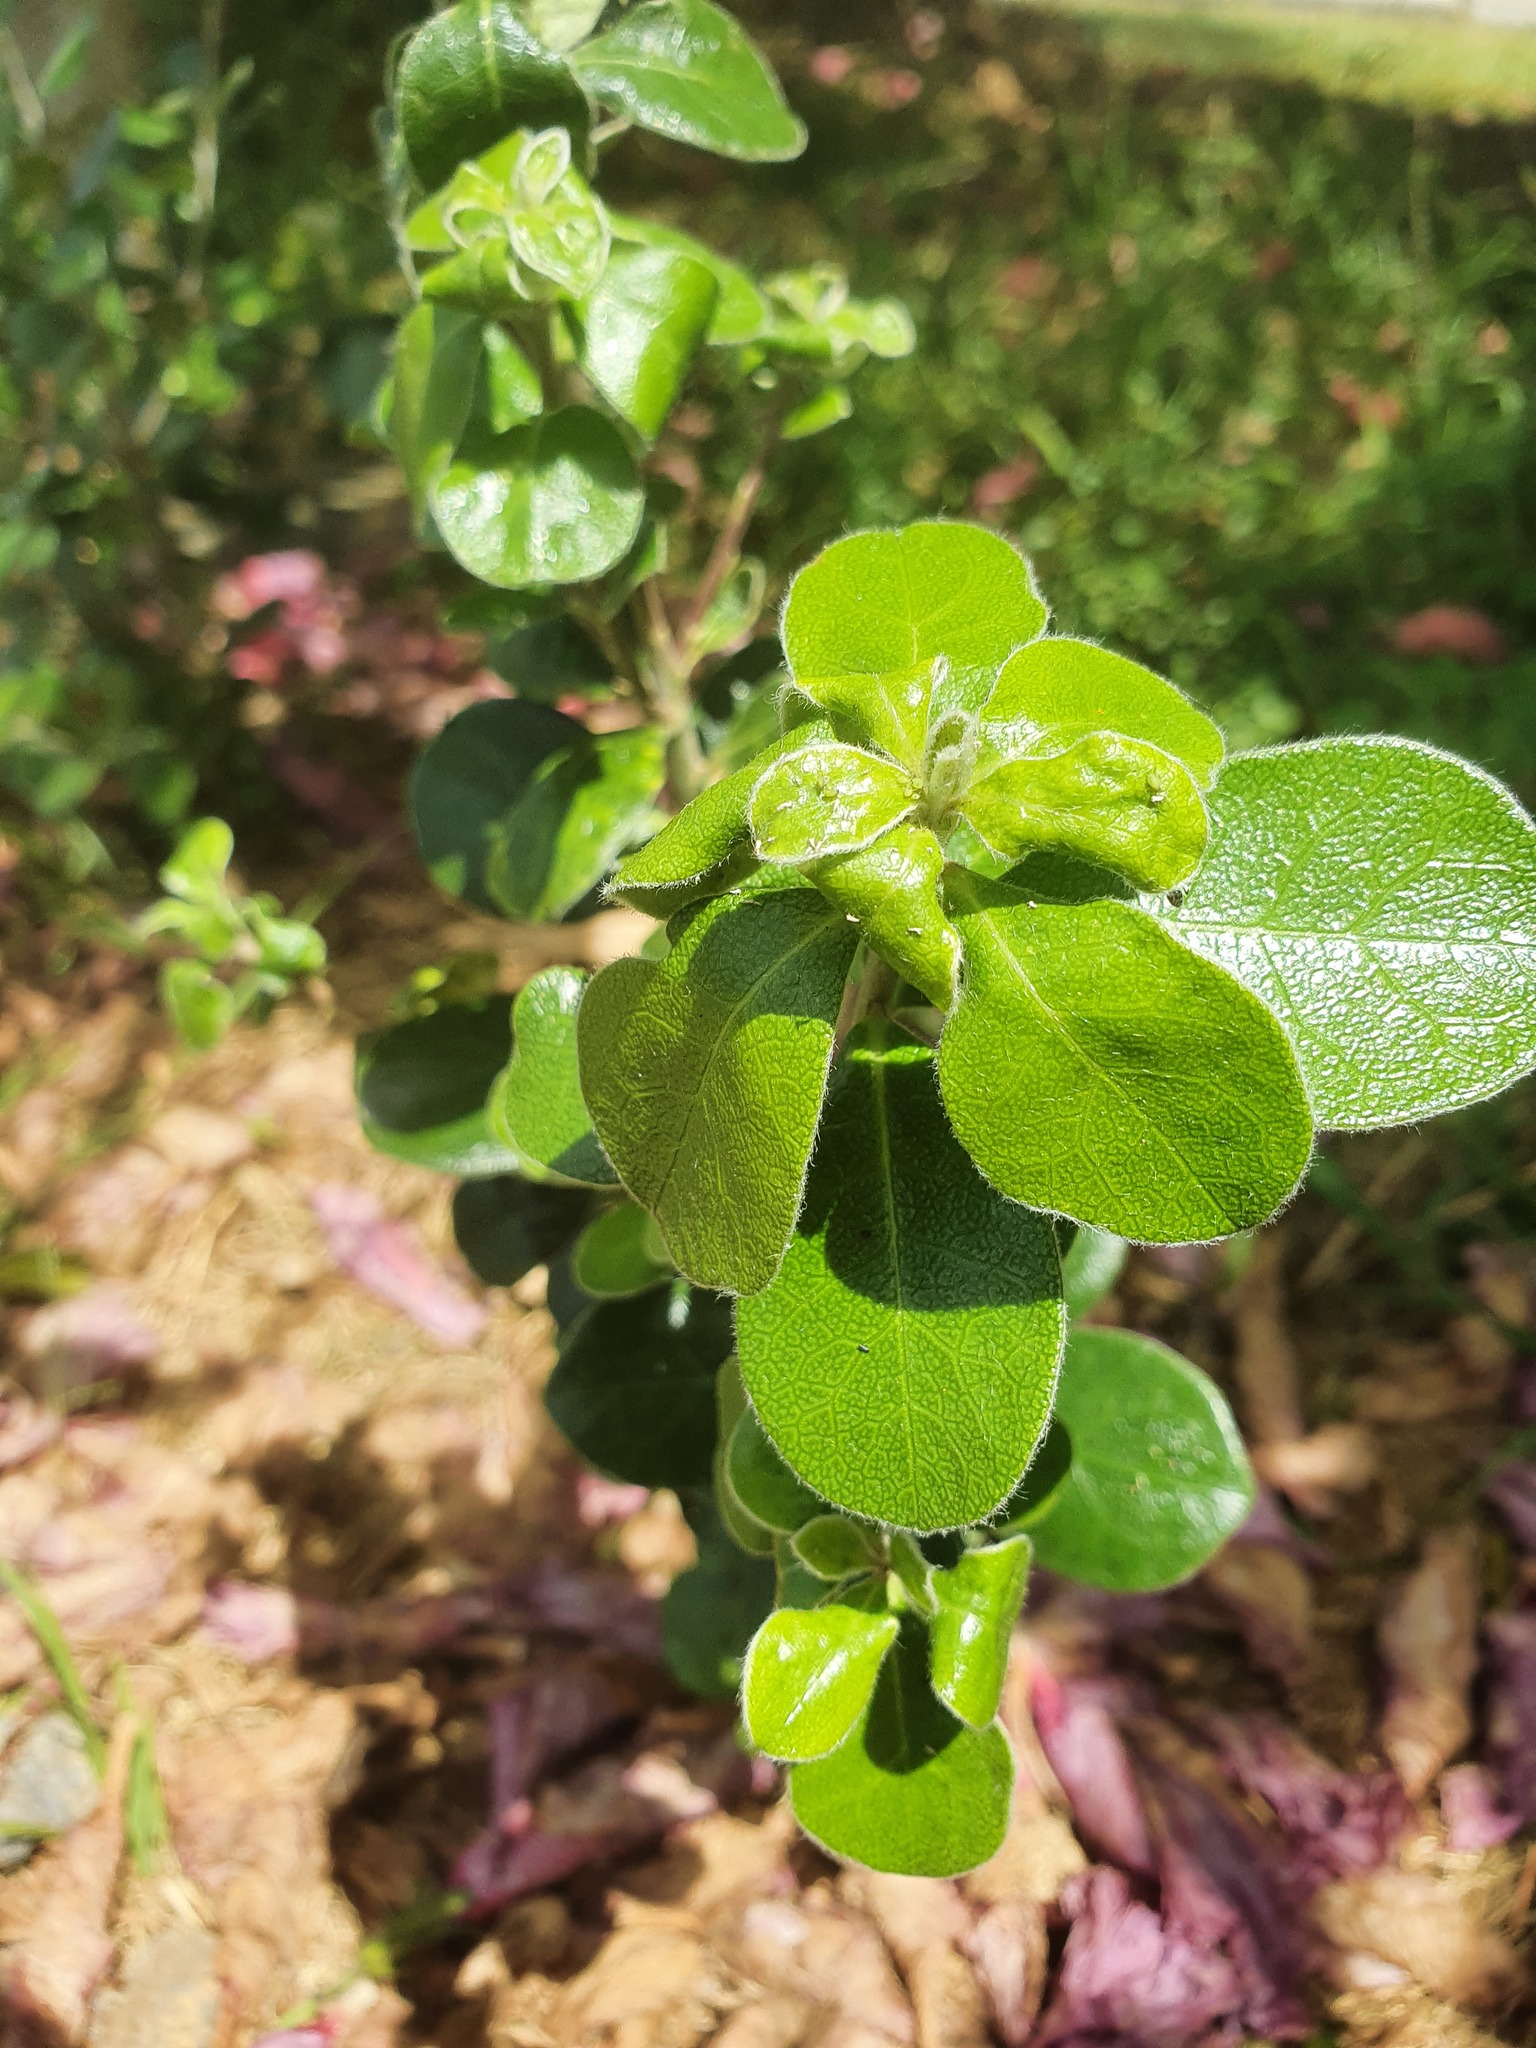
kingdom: Plantae
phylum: Tracheophyta
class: Magnoliopsida
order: Apiales
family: Pittosporaceae
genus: Pittosporum
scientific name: Pittosporum crassifolium
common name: Karo
